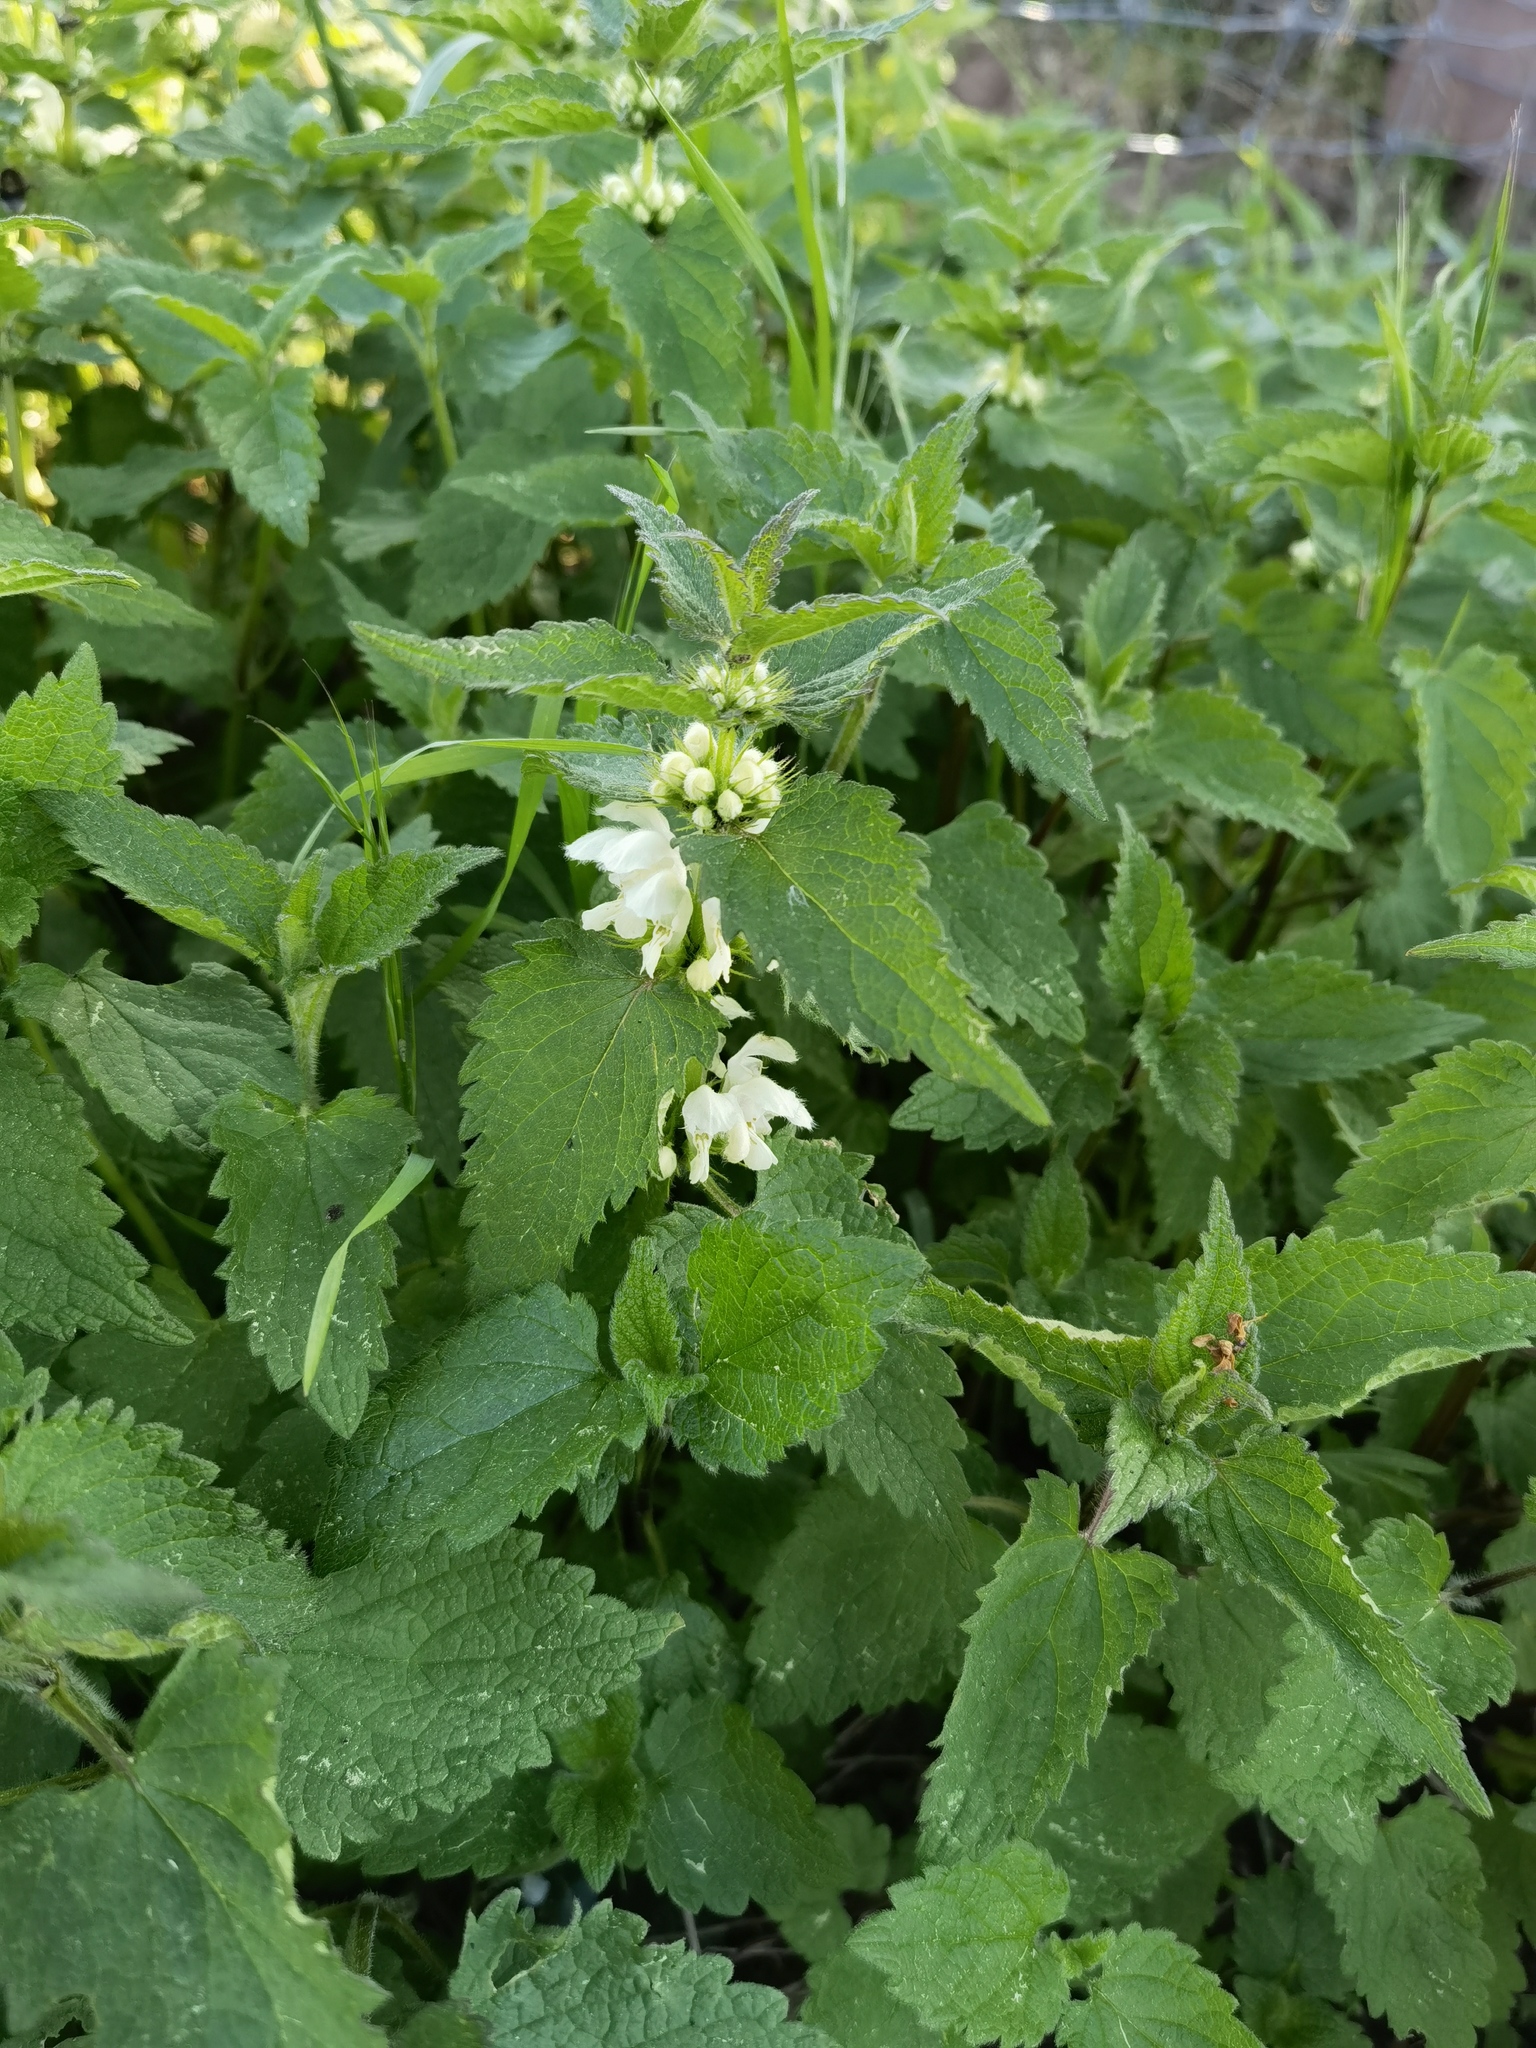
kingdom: Plantae
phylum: Tracheophyta
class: Magnoliopsida
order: Lamiales
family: Lamiaceae
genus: Lamium
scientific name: Lamium album
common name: White dead-nettle
